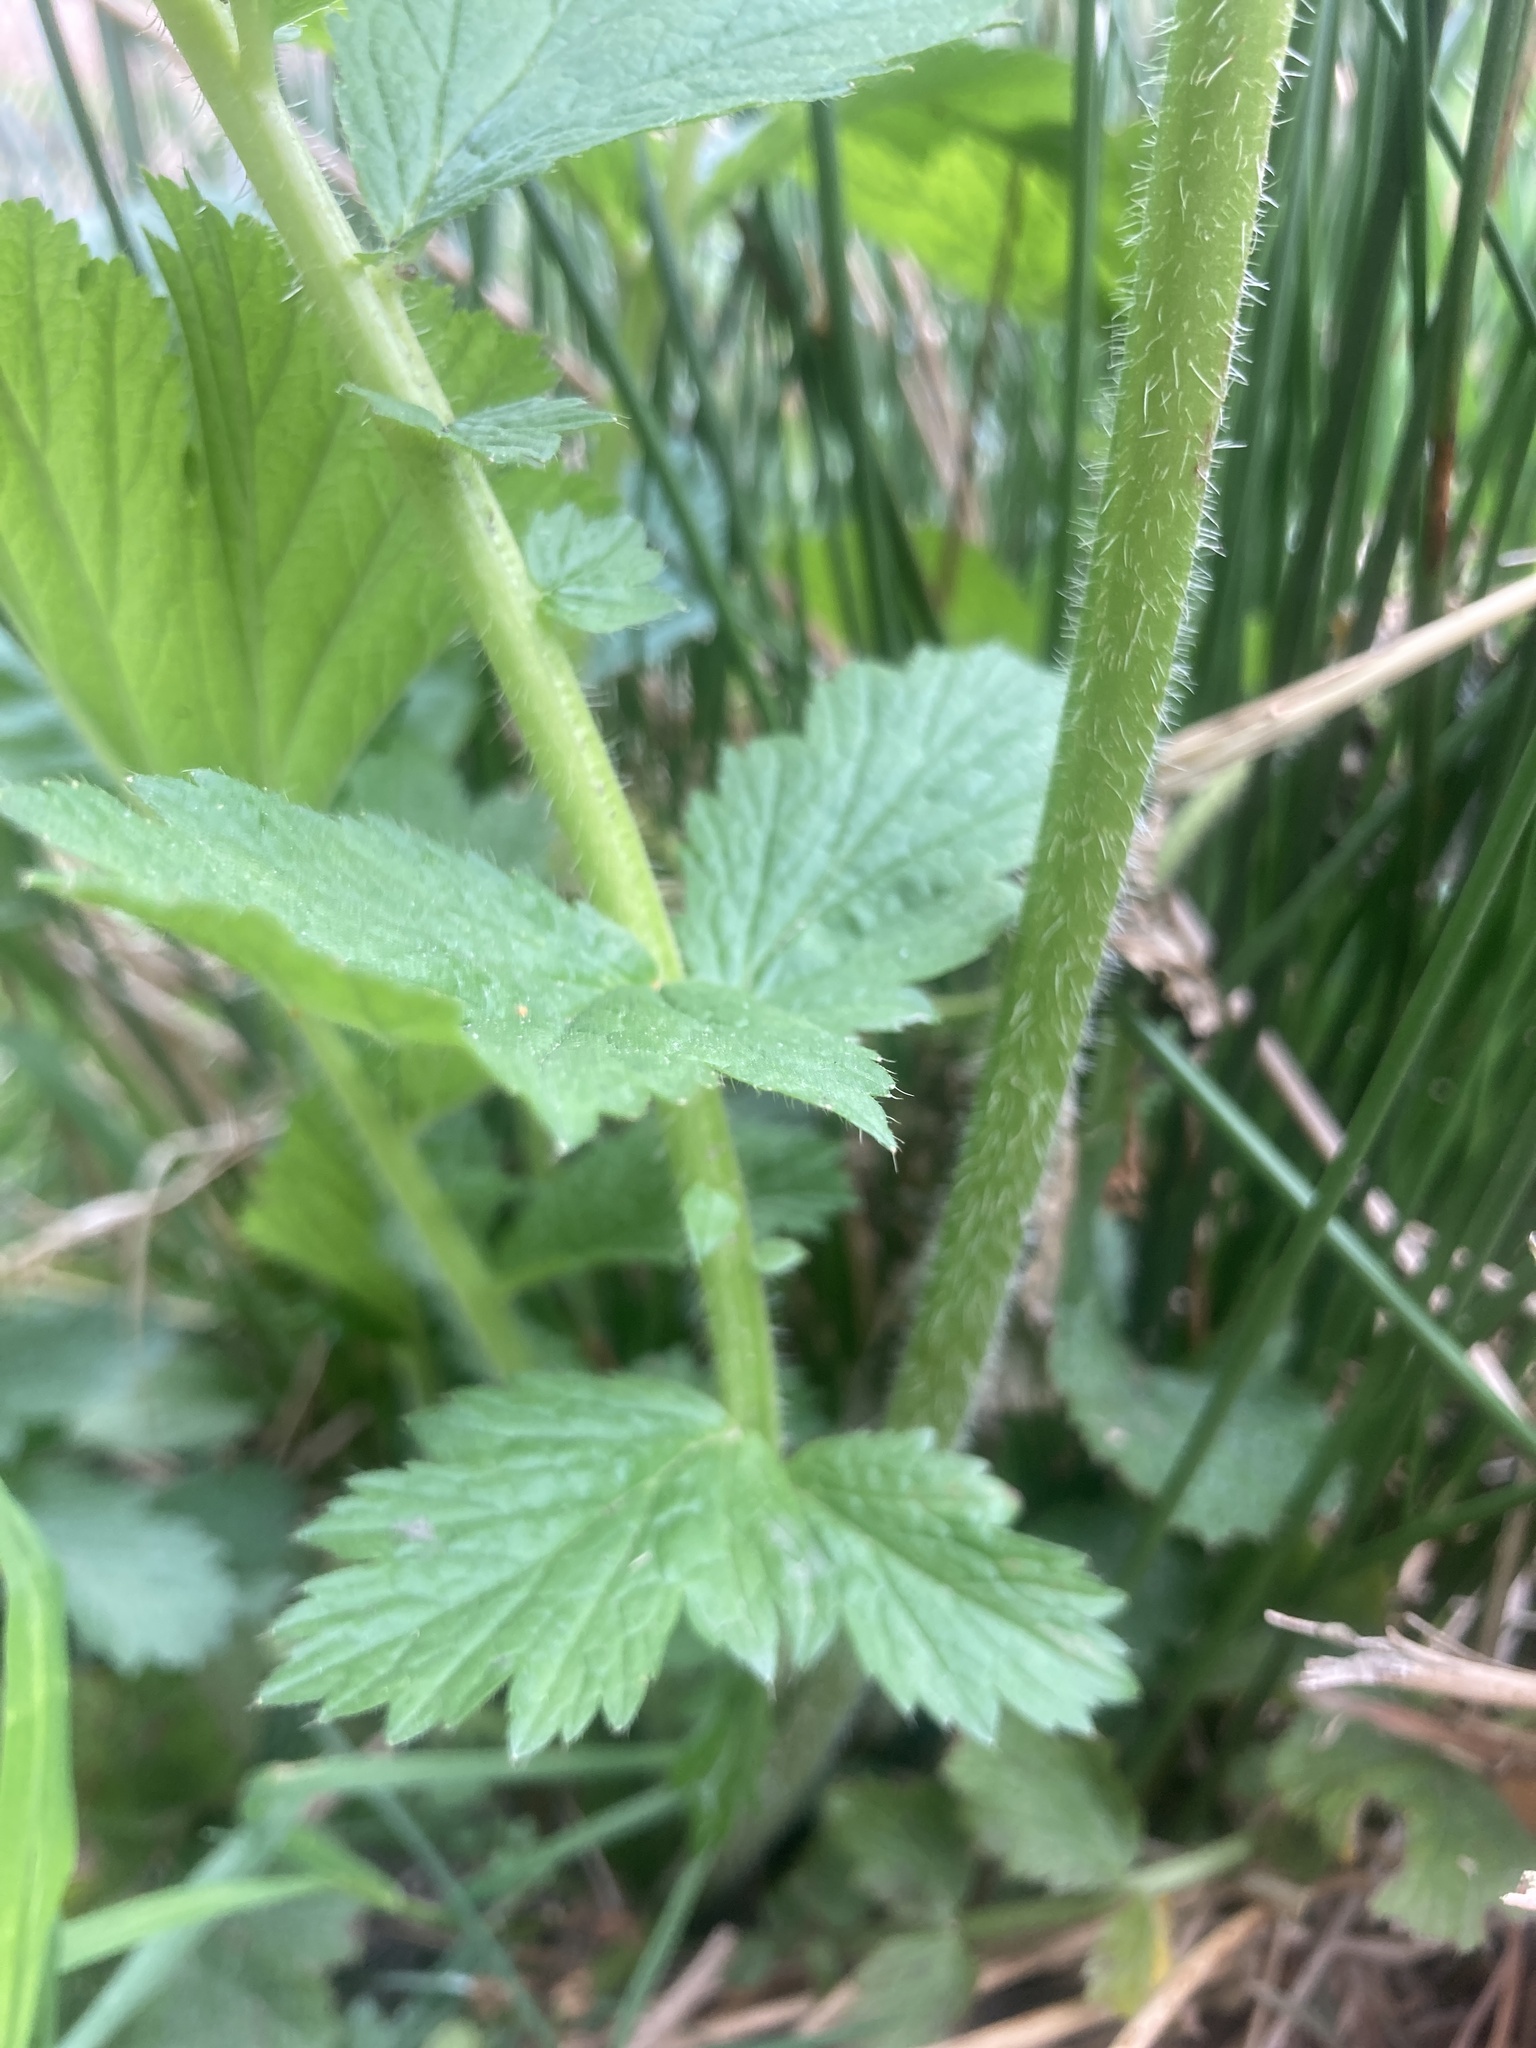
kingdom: Plantae
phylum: Tracheophyta
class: Magnoliopsida
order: Rosales
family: Rosaceae
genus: Geum
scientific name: Geum macrophyllum
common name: Large-leaved avens
